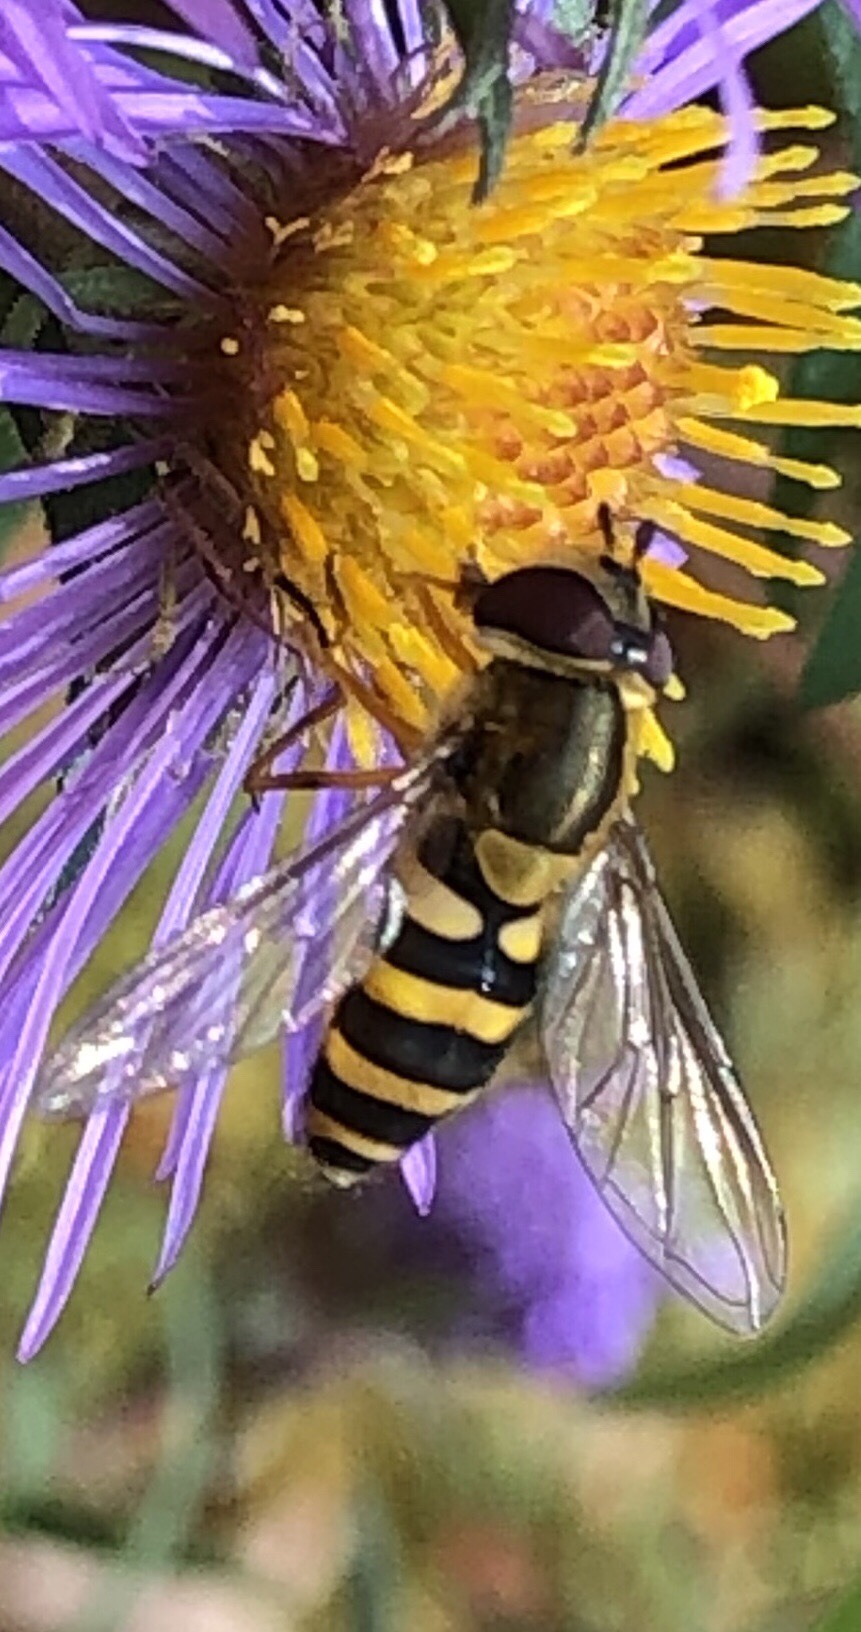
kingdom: Animalia
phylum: Arthropoda
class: Insecta
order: Diptera
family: Syrphidae
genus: Syrphus
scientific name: Syrphus rectus
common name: Yellow-legged flower fly
